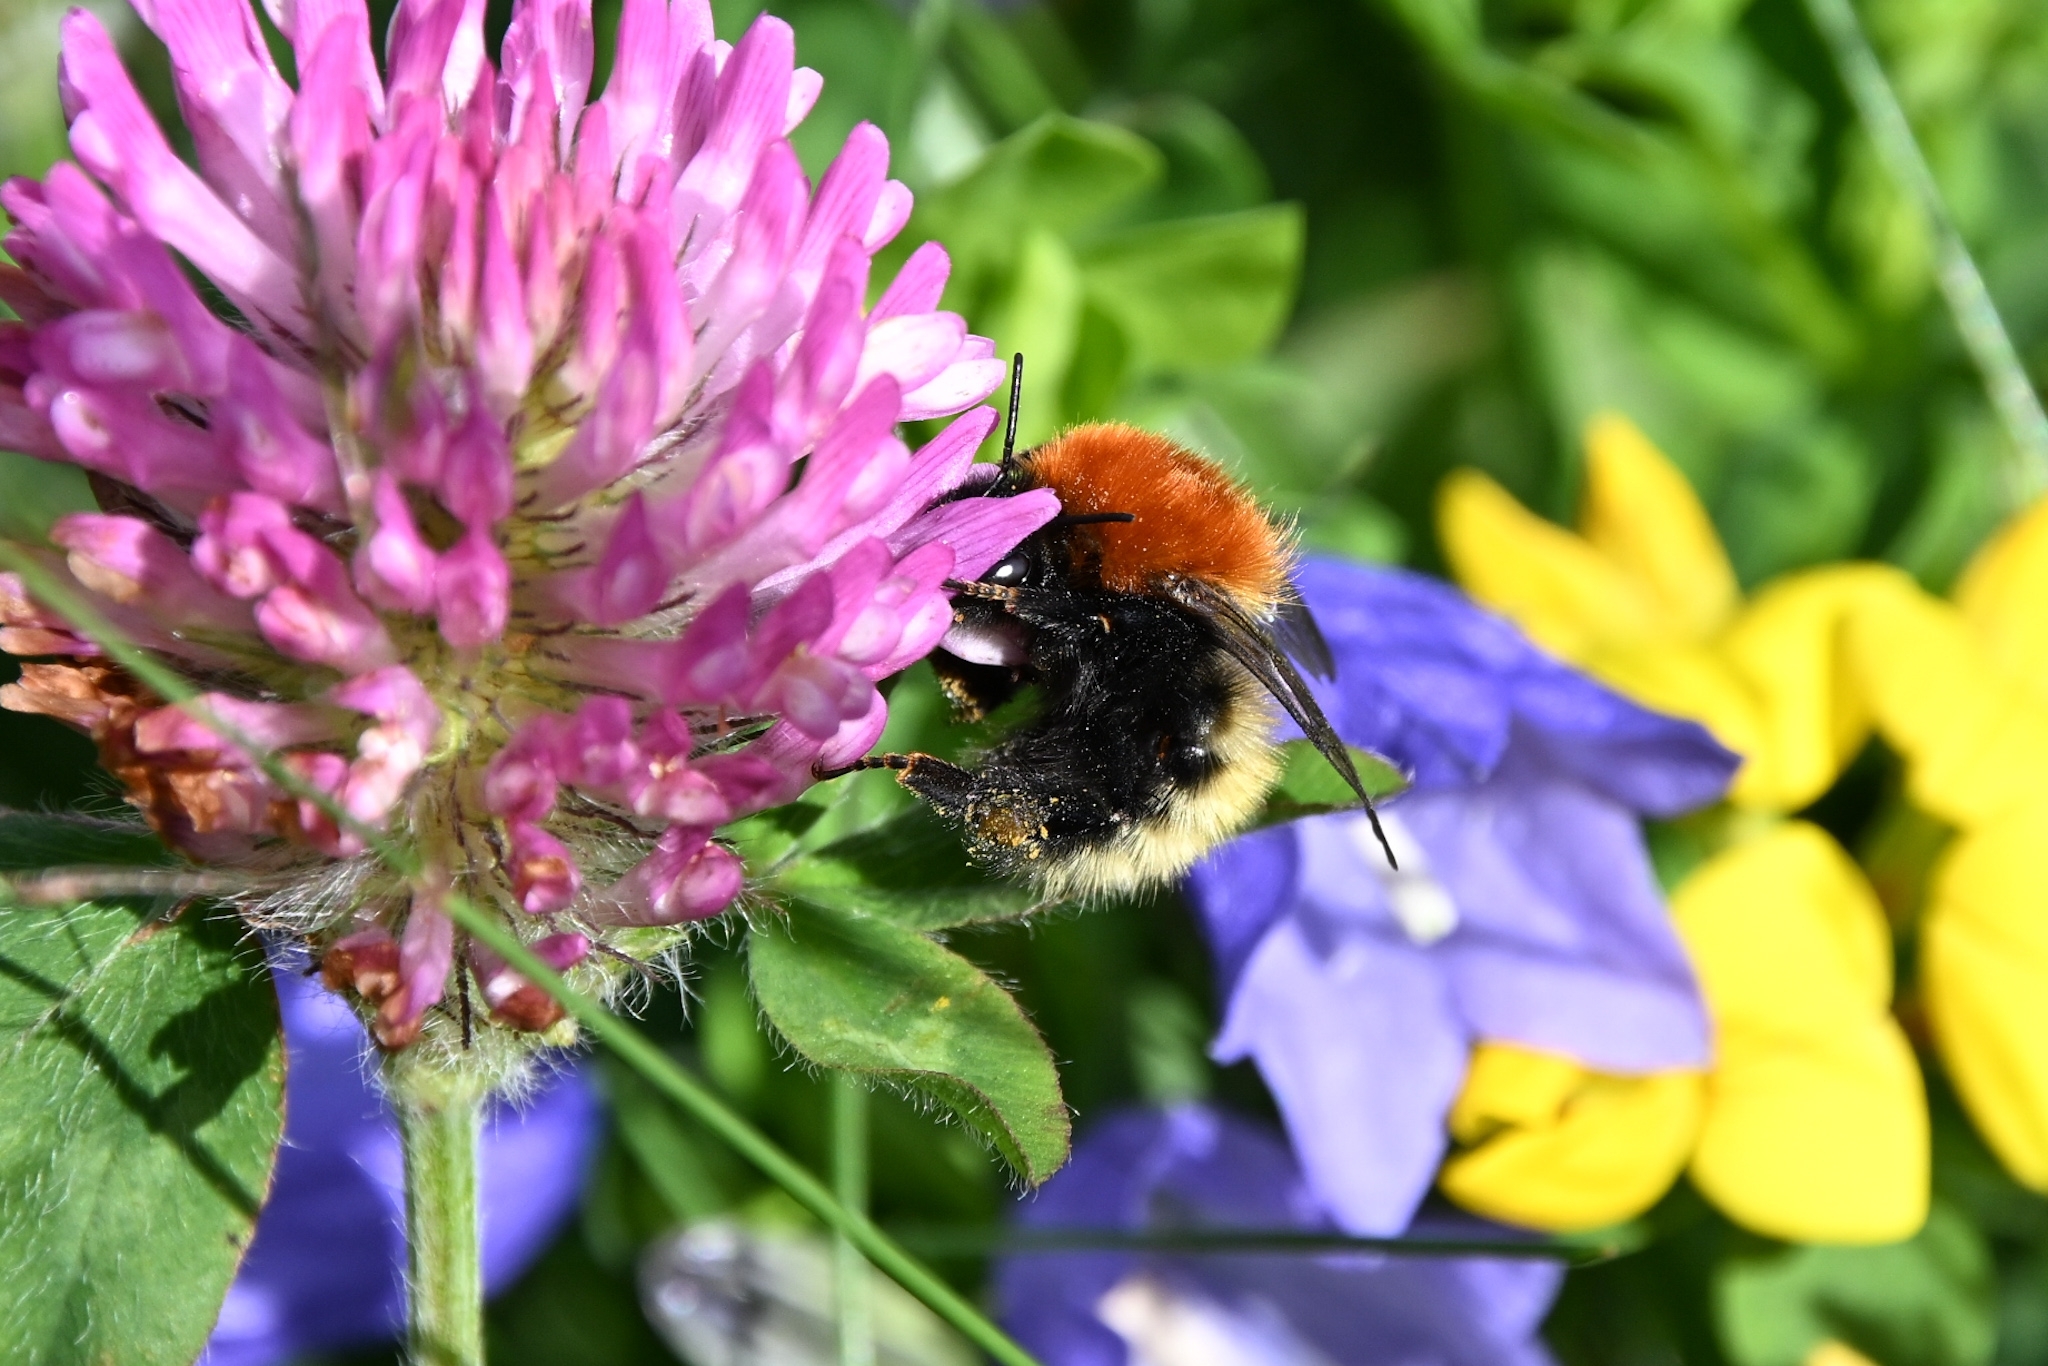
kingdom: Animalia
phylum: Arthropoda
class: Insecta
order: Hymenoptera
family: Apidae
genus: Bombus
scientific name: Bombus muscorum
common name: Moss carder-bee
